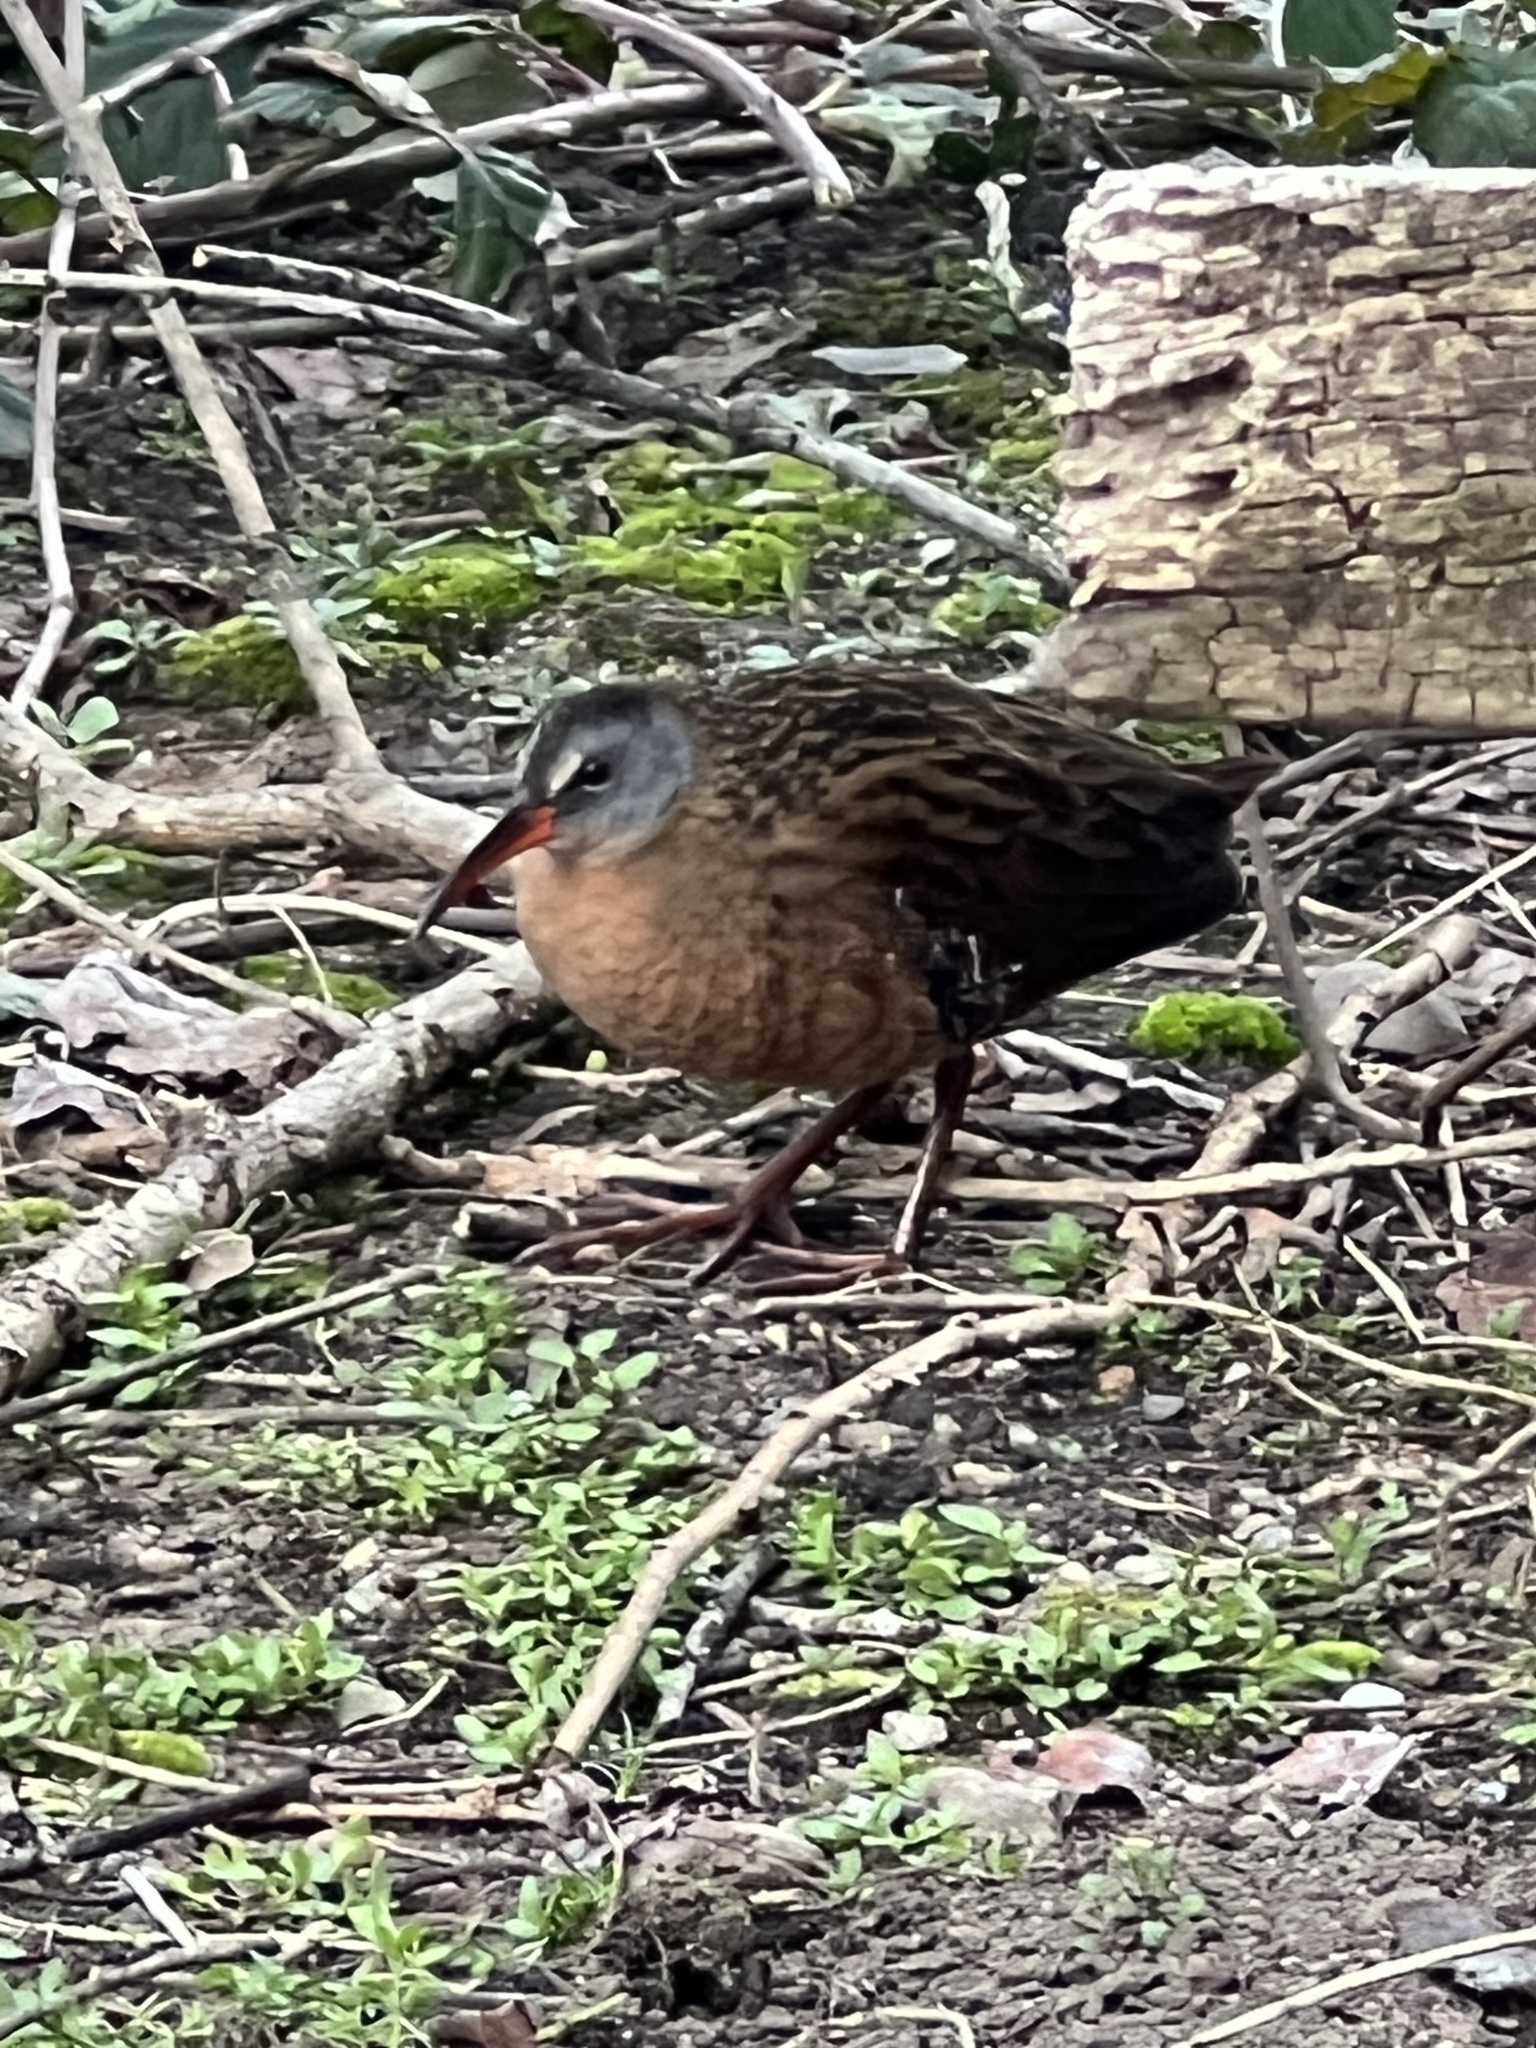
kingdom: Animalia
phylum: Chordata
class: Aves
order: Gruiformes
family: Rallidae
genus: Rallus
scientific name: Rallus limicola
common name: Virginia rail
